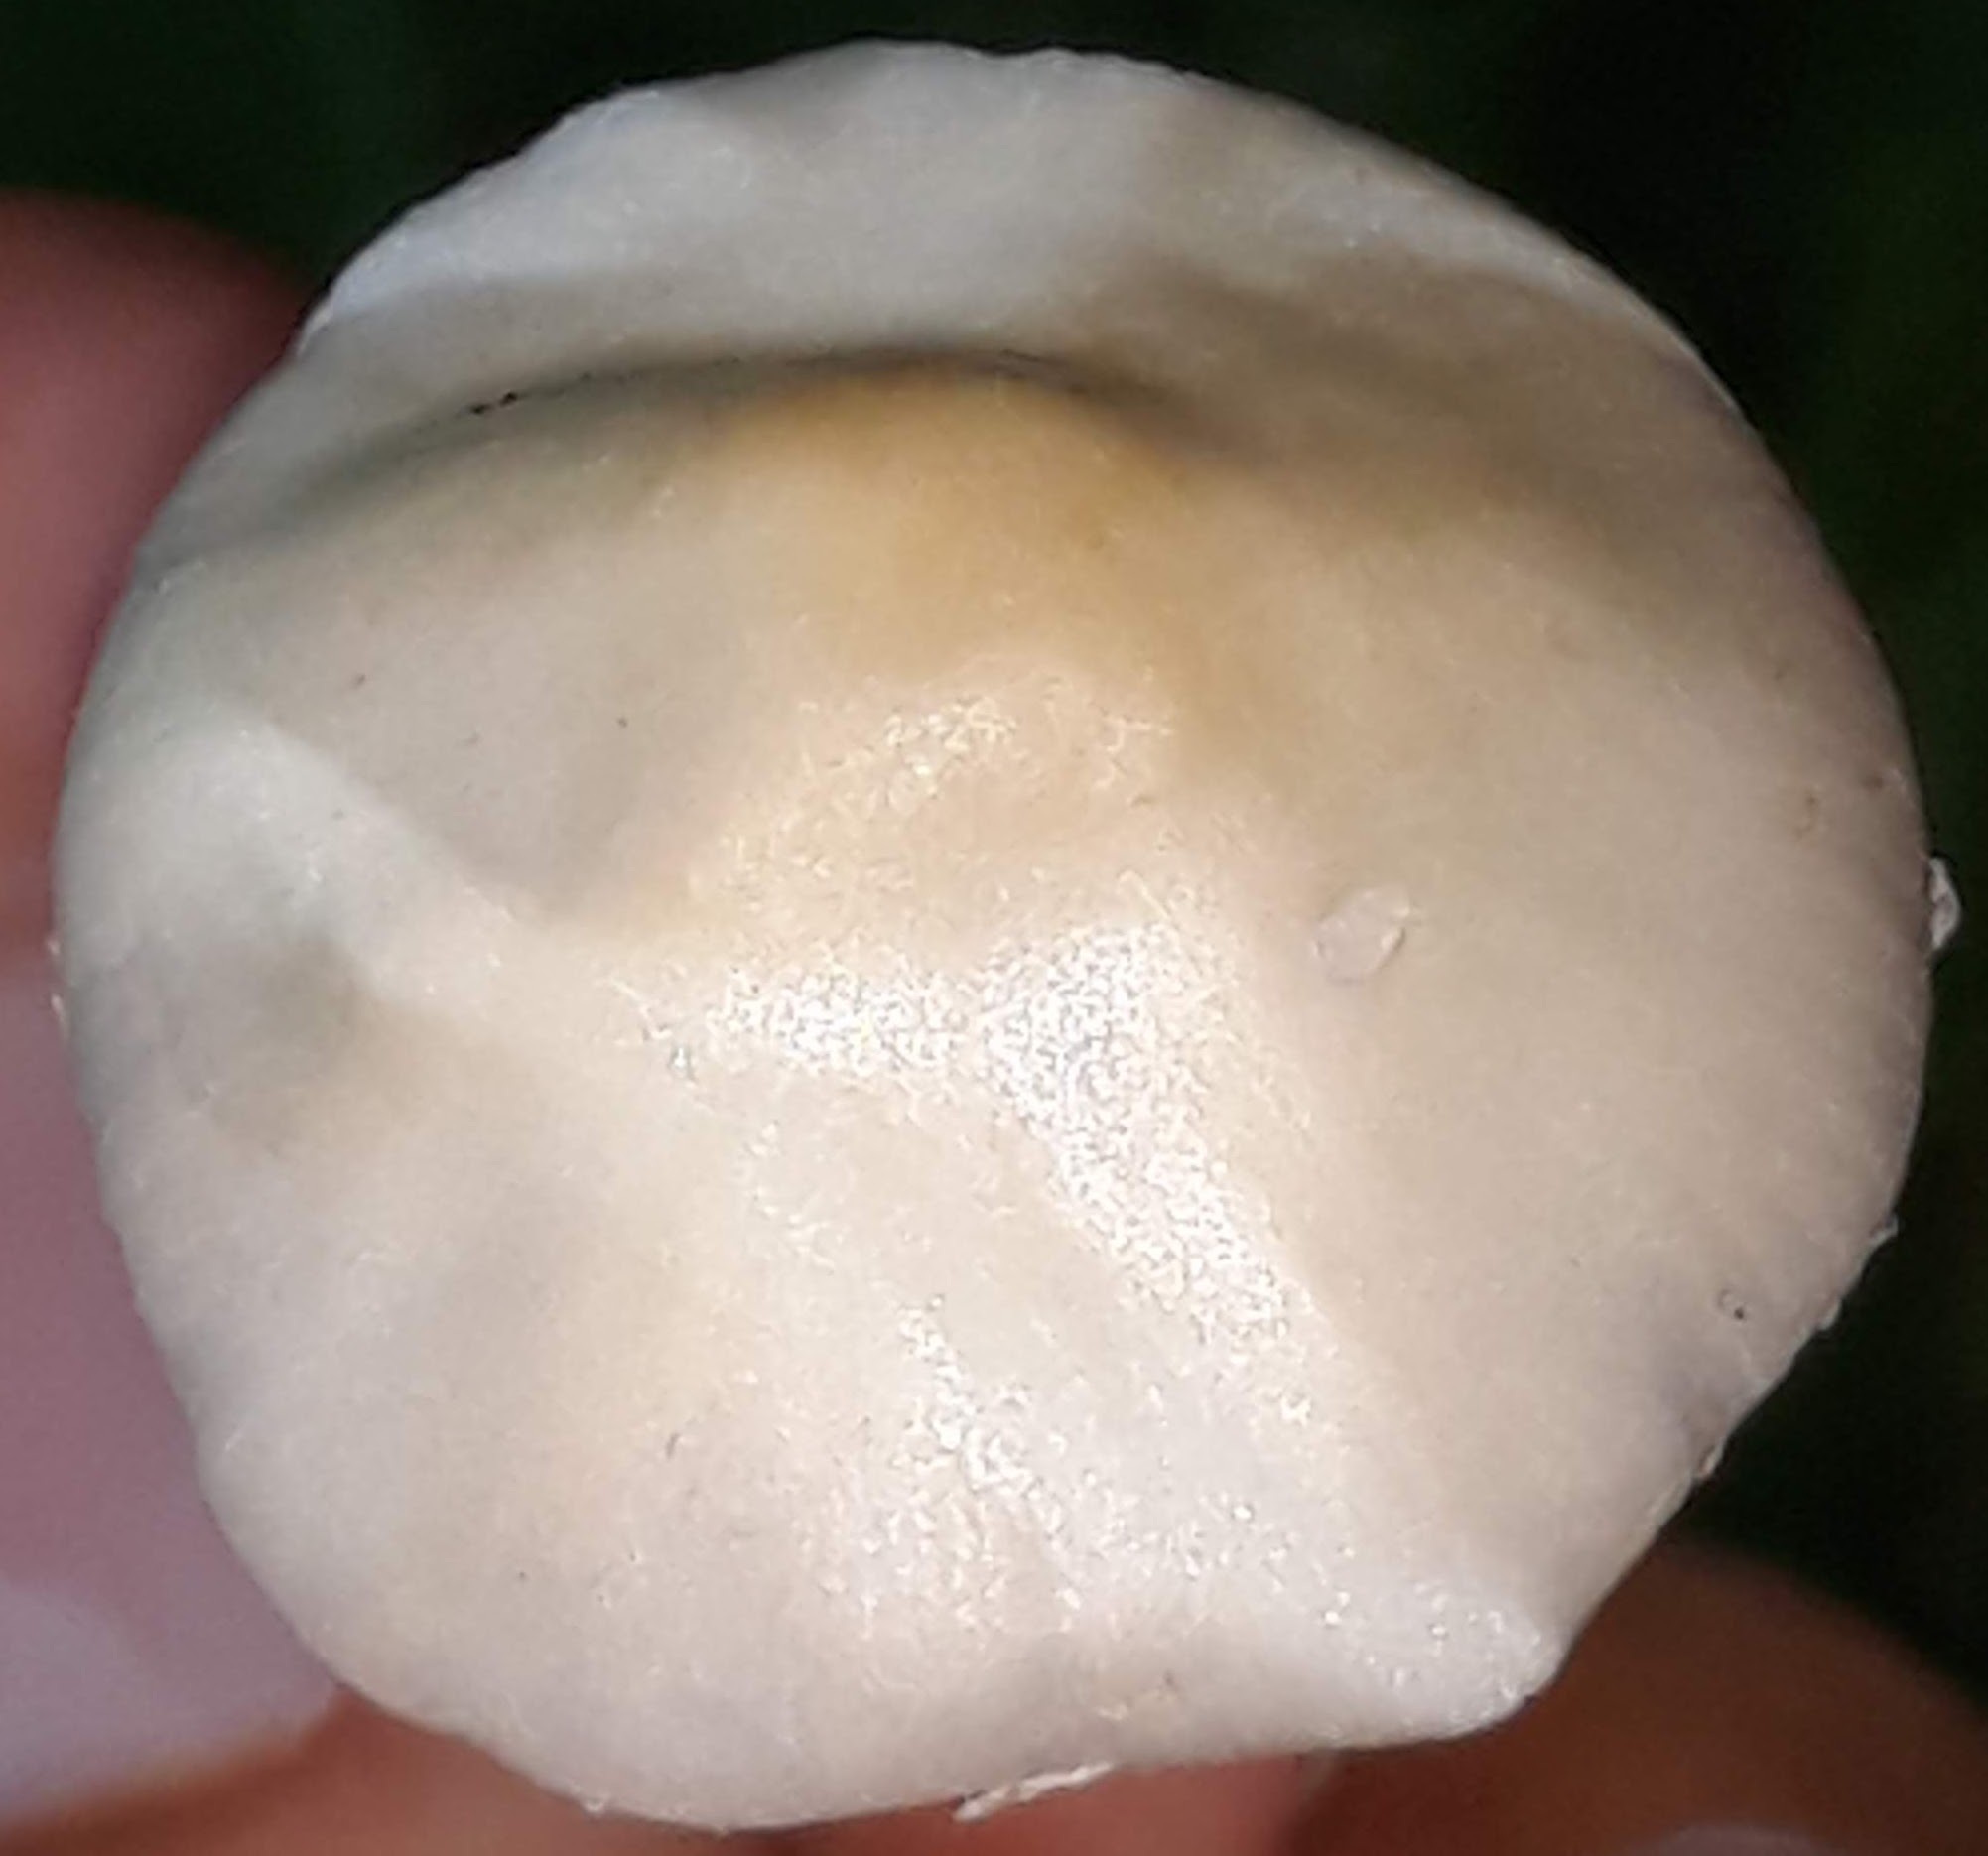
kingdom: Fungi
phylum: Basidiomycota
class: Agaricomycetes
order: Agaricales
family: Psathyrellaceae
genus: Candolleomyces
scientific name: Candolleomyces candolleanus
